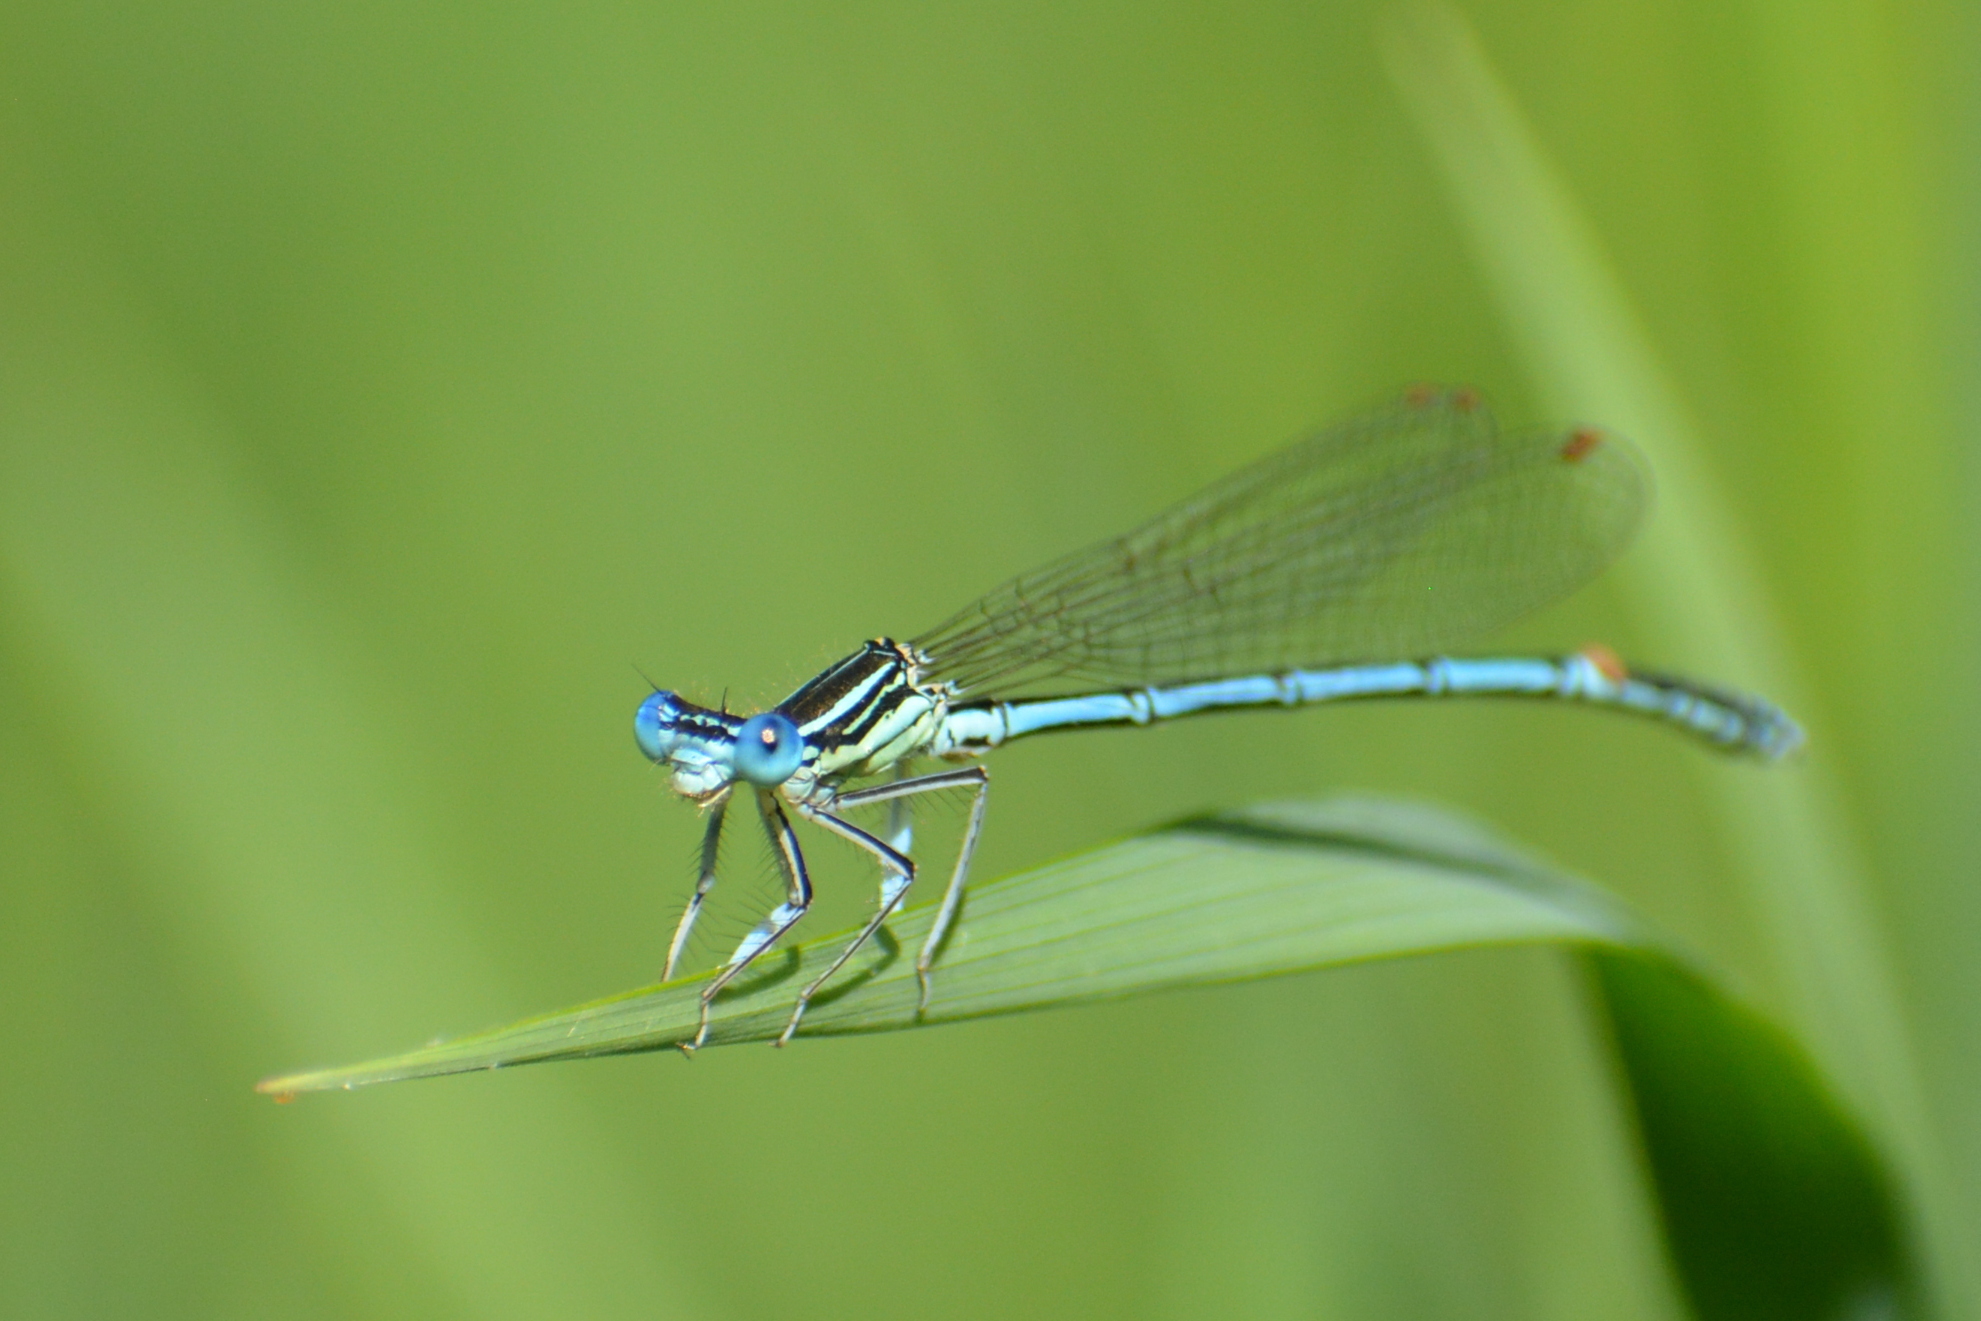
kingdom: Animalia
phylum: Arthropoda
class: Insecta
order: Odonata
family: Platycnemididae
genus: Platycnemis
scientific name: Platycnemis pennipes
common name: White-legged damselfly
